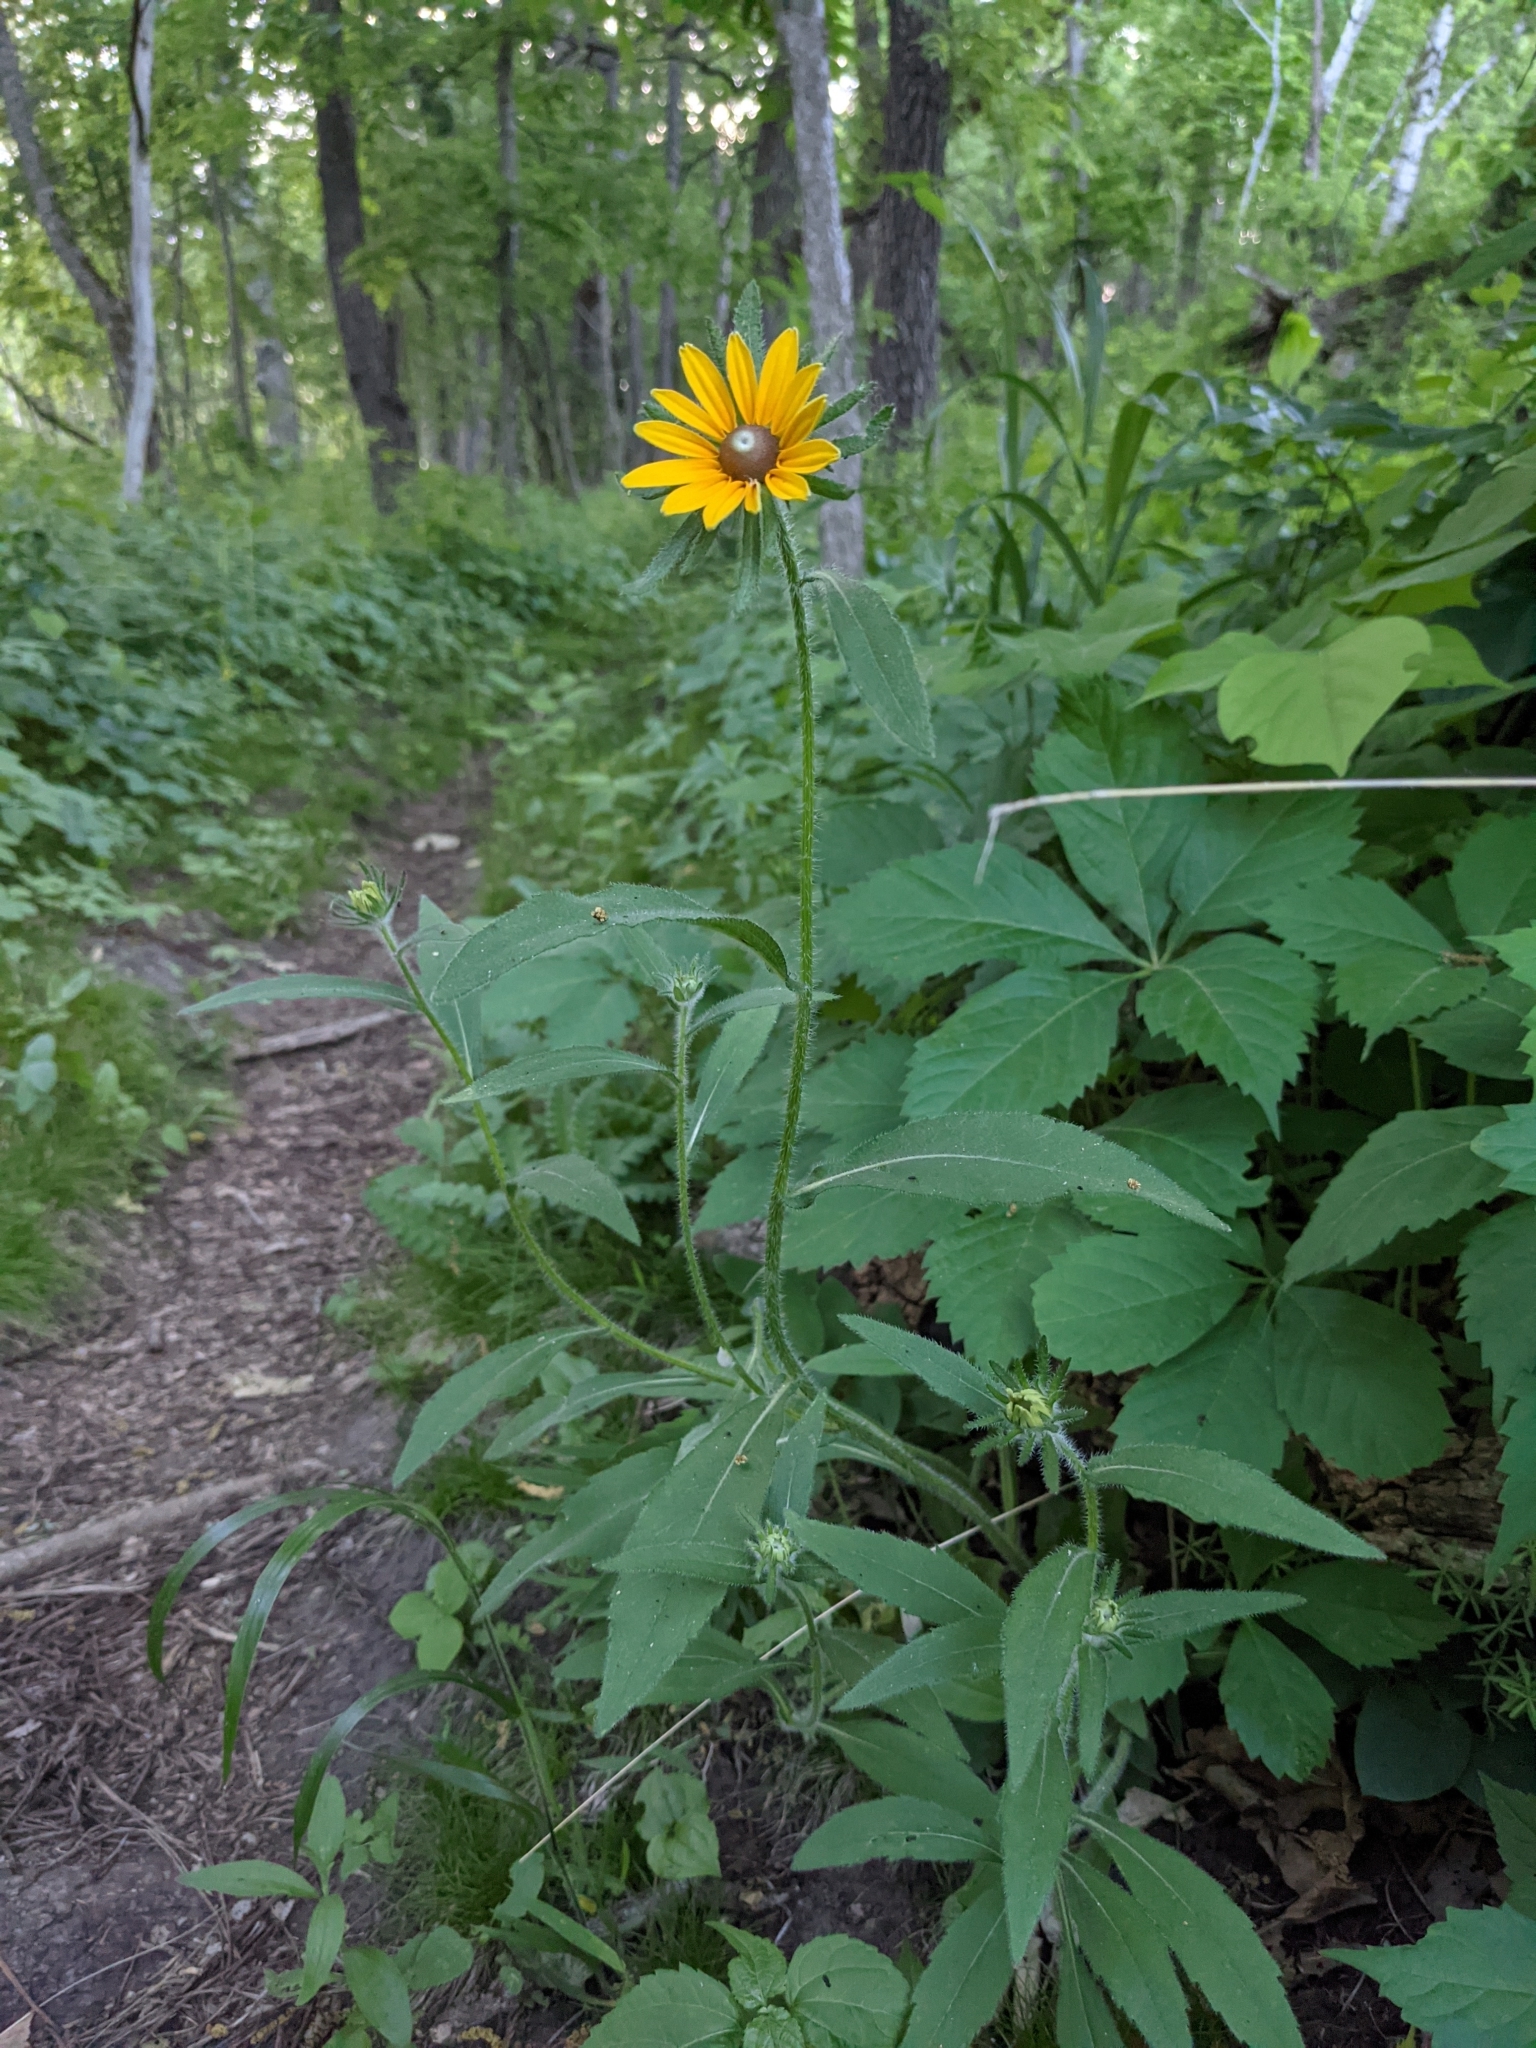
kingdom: Plantae
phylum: Tracheophyta
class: Magnoliopsida
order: Asterales
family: Asteraceae
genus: Rudbeckia
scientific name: Rudbeckia hirta
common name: Black-eyed-susan
